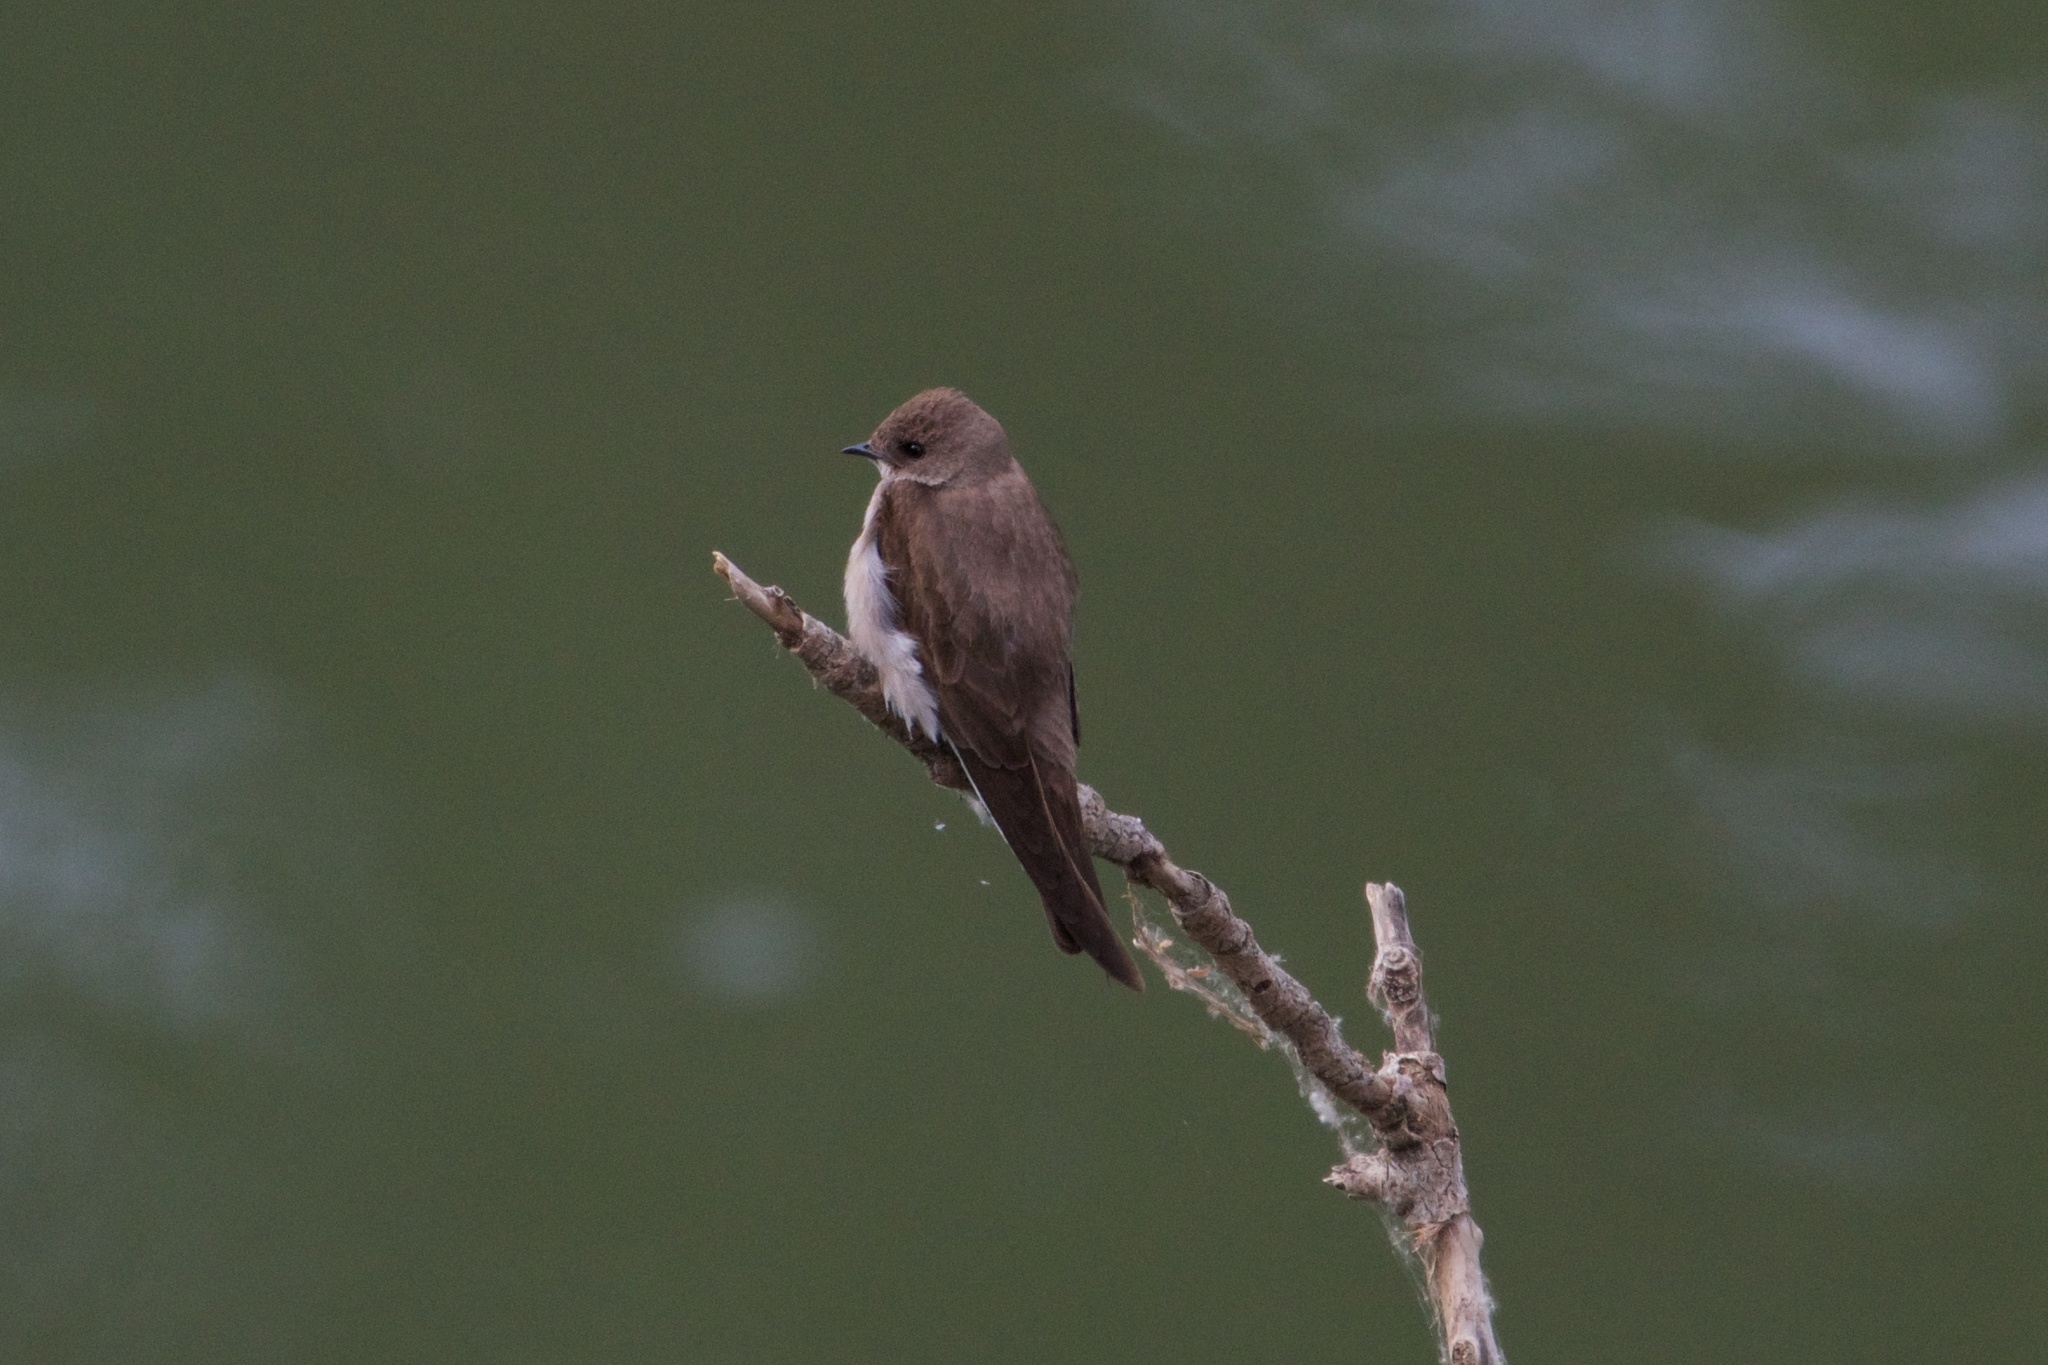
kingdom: Animalia
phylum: Chordata
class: Aves
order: Passeriformes
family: Hirundinidae
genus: Stelgidopteryx
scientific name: Stelgidopteryx serripennis
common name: Northern rough-winged swallow
